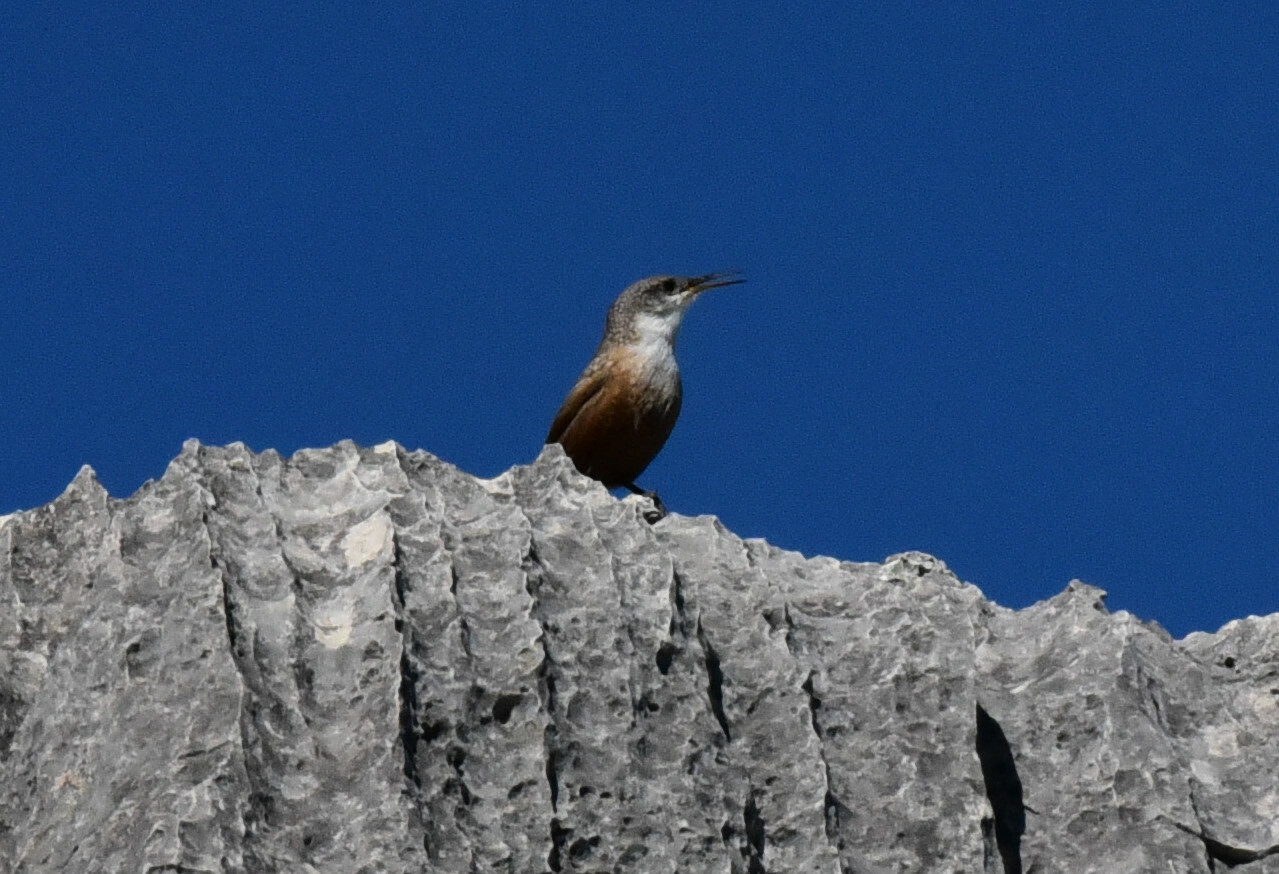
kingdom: Animalia
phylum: Chordata
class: Aves
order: Passeriformes
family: Troglodytidae
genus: Catherpes
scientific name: Catherpes mexicanus
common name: Canyon wren
